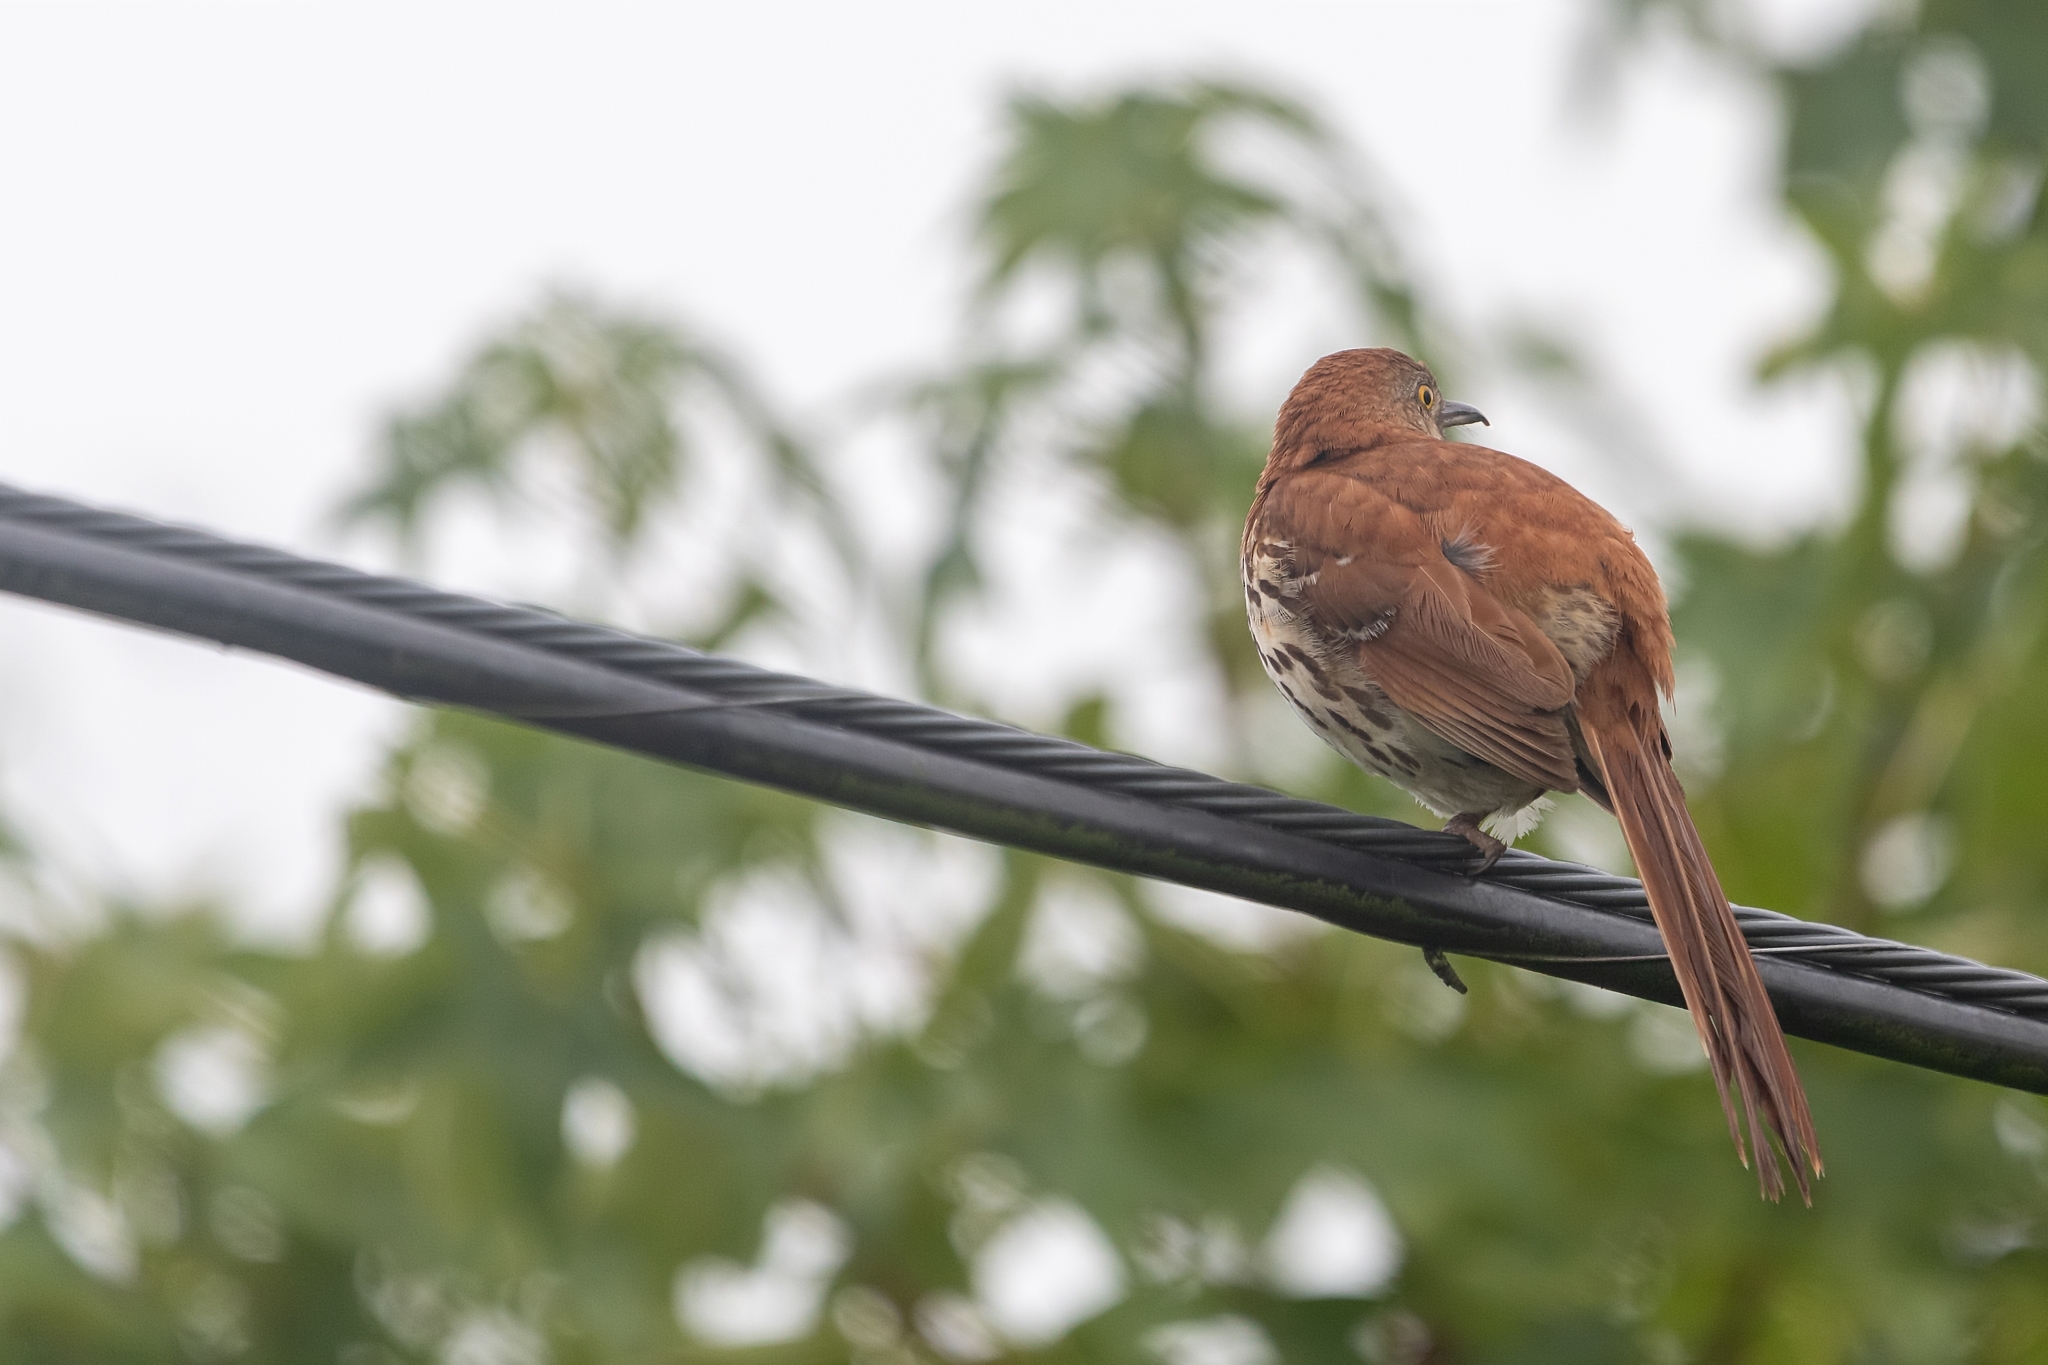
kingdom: Animalia
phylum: Chordata
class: Aves
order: Passeriformes
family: Mimidae
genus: Toxostoma
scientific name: Toxostoma rufum
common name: Brown thrasher
